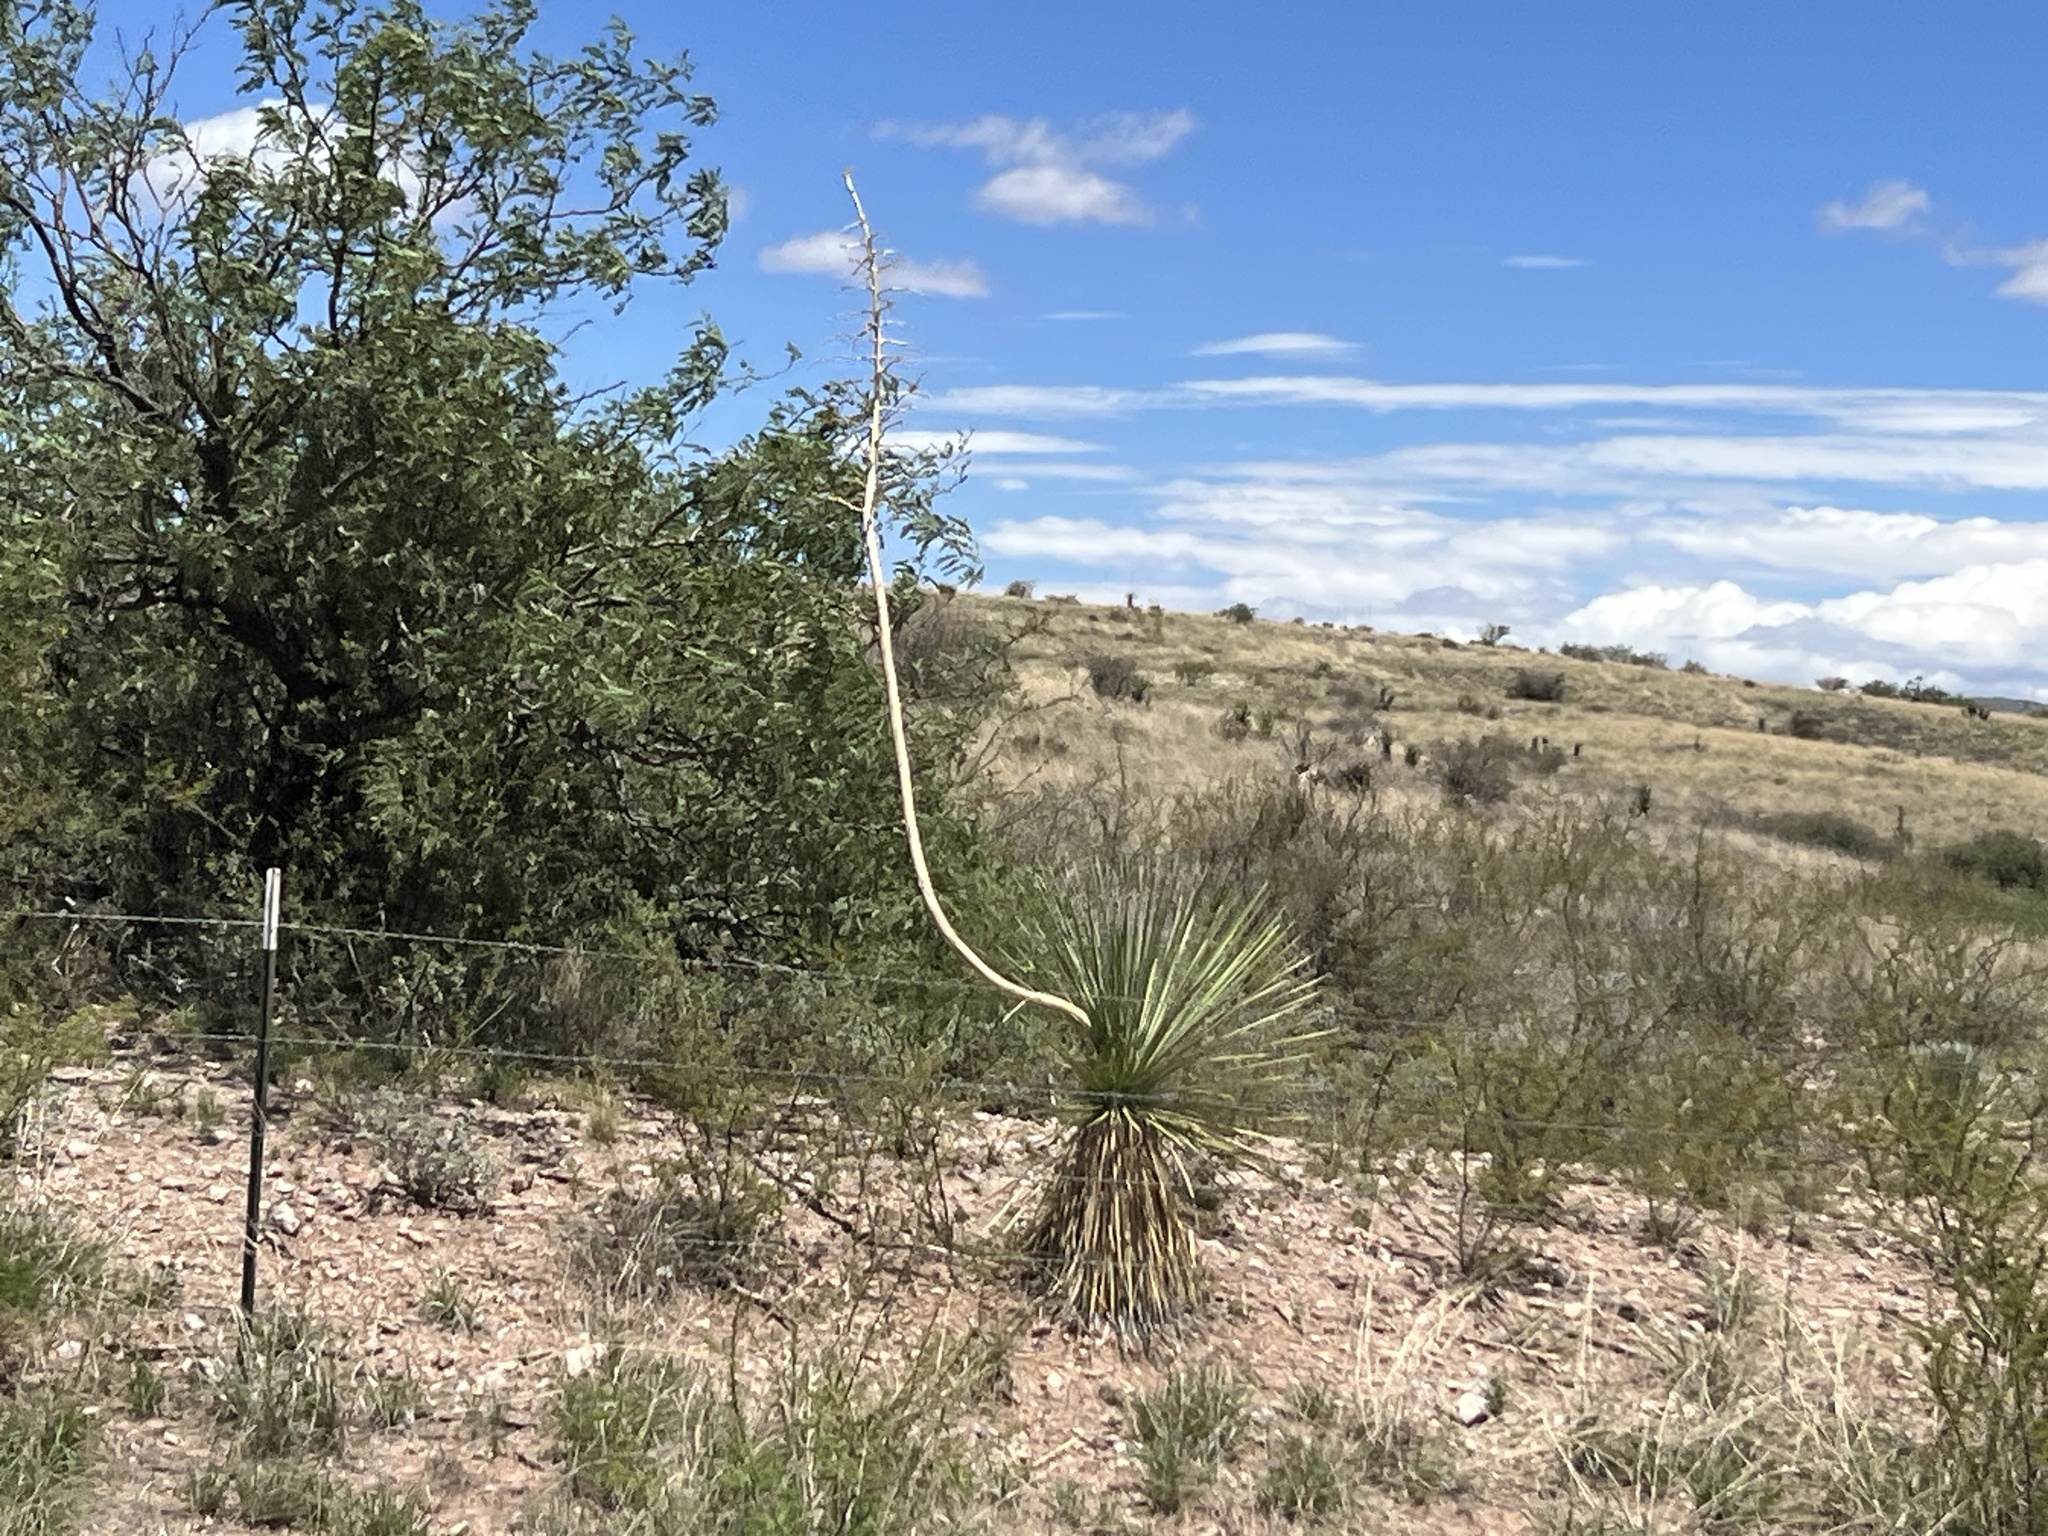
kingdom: Plantae
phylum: Tracheophyta
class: Liliopsida
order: Asparagales
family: Asparagaceae
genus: Yucca
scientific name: Yucca elata
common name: Palmella
